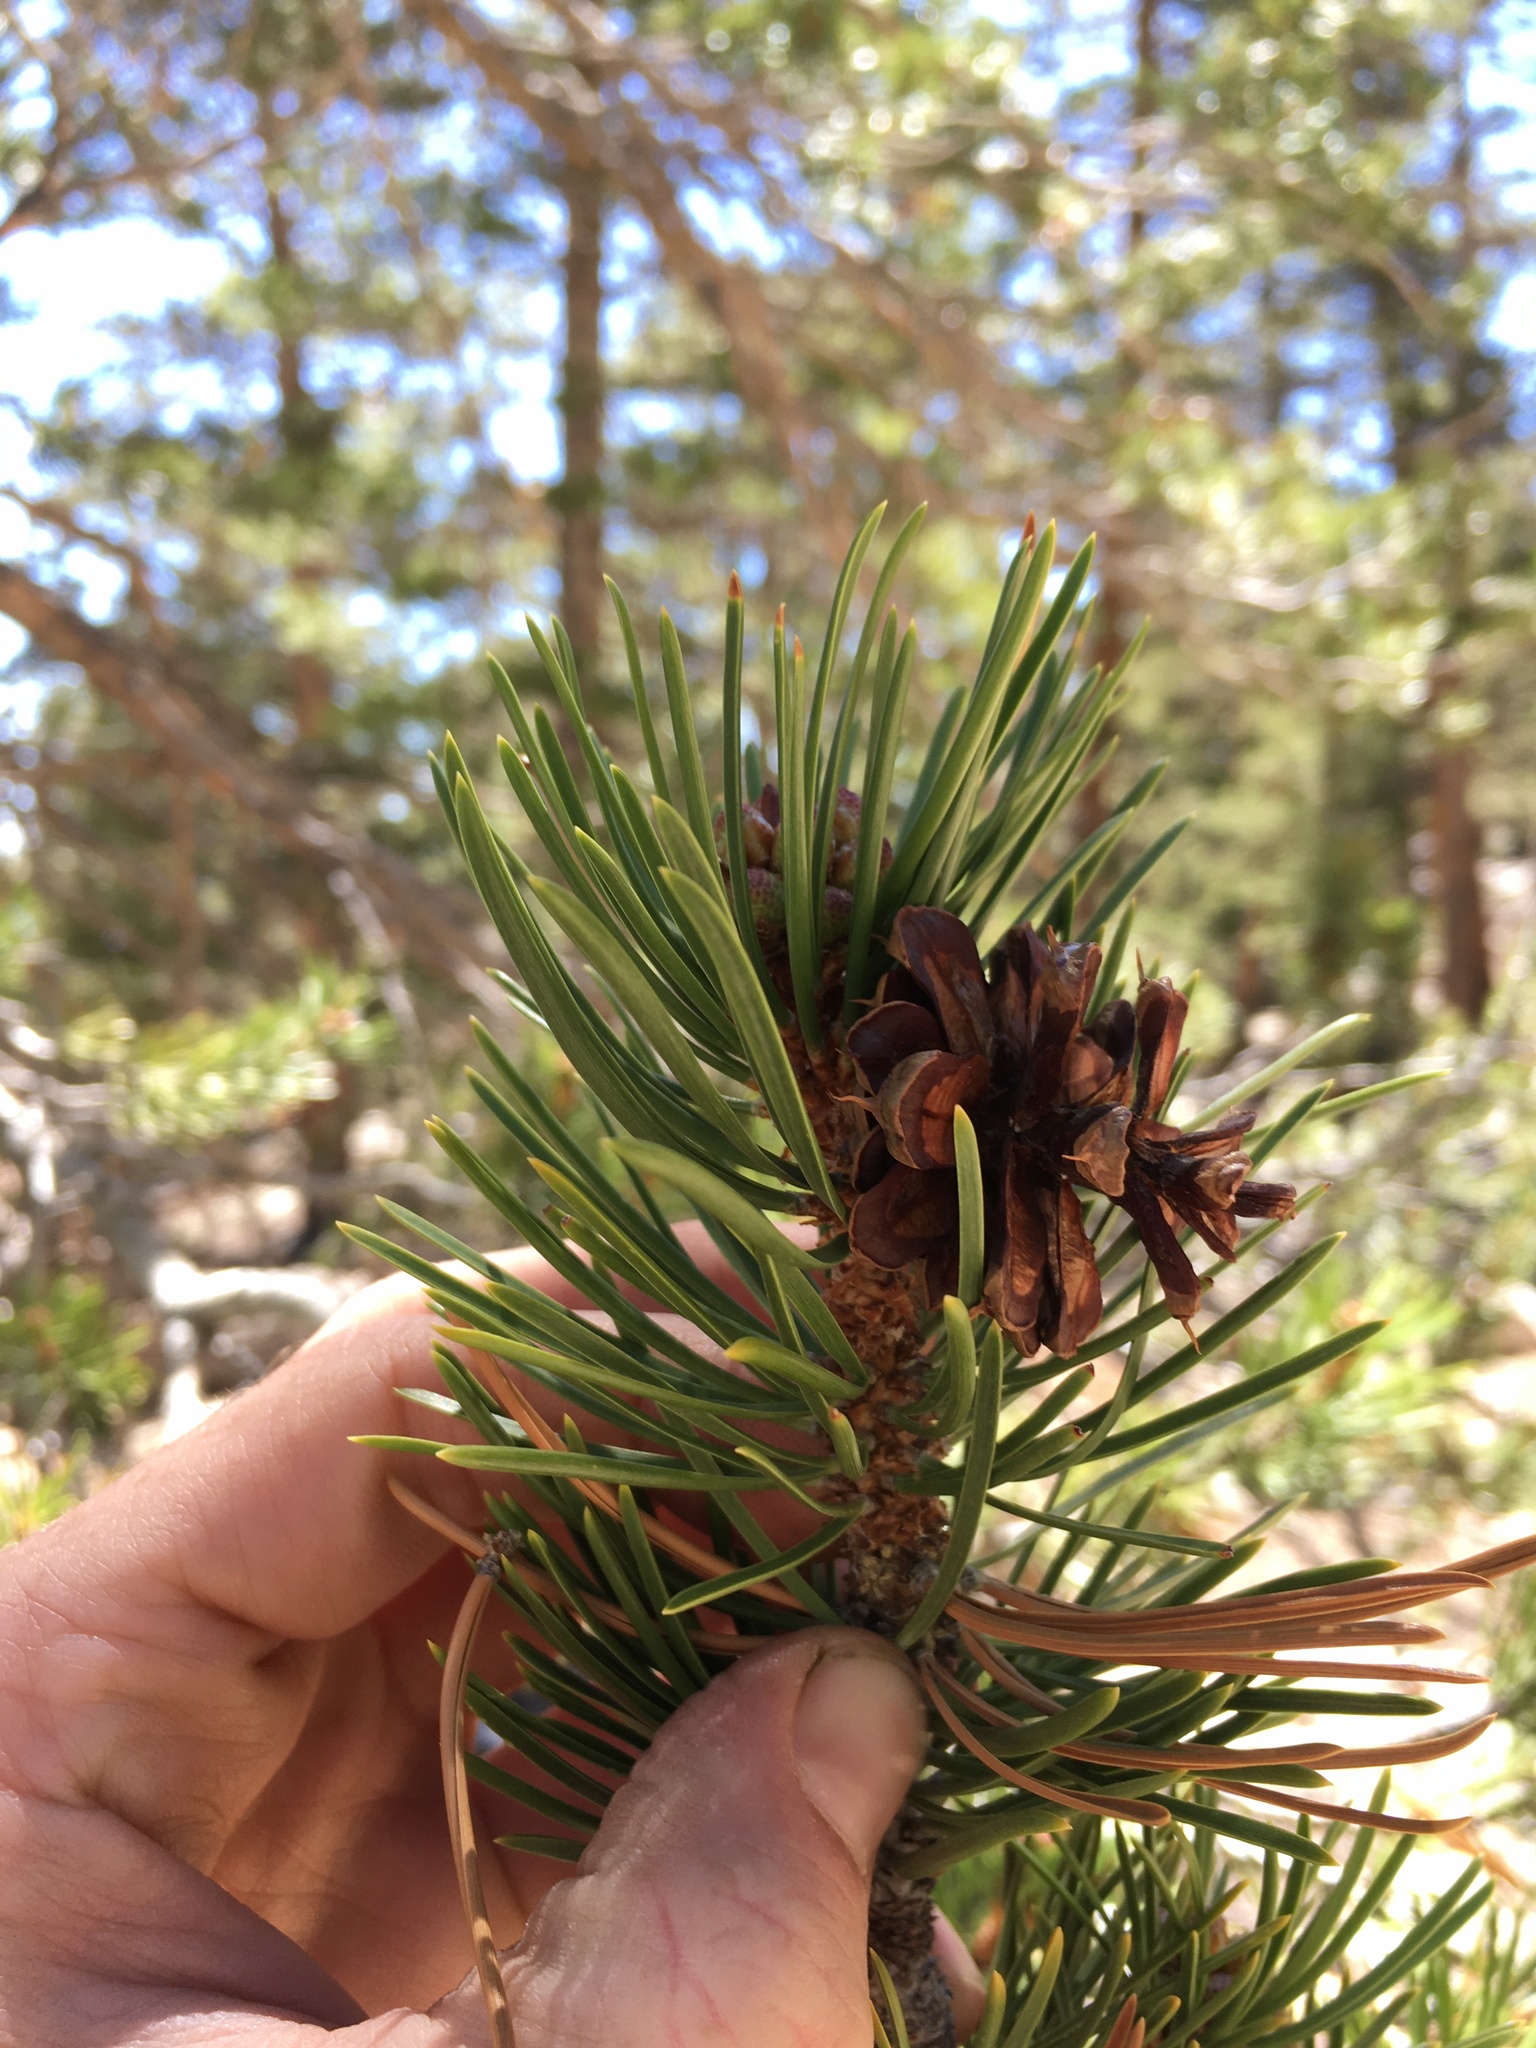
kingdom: Plantae
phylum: Tracheophyta
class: Pinopsida
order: Pinales
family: Pinaceae
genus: Pinus
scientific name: Pinus contorta
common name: Lodgepole pine
